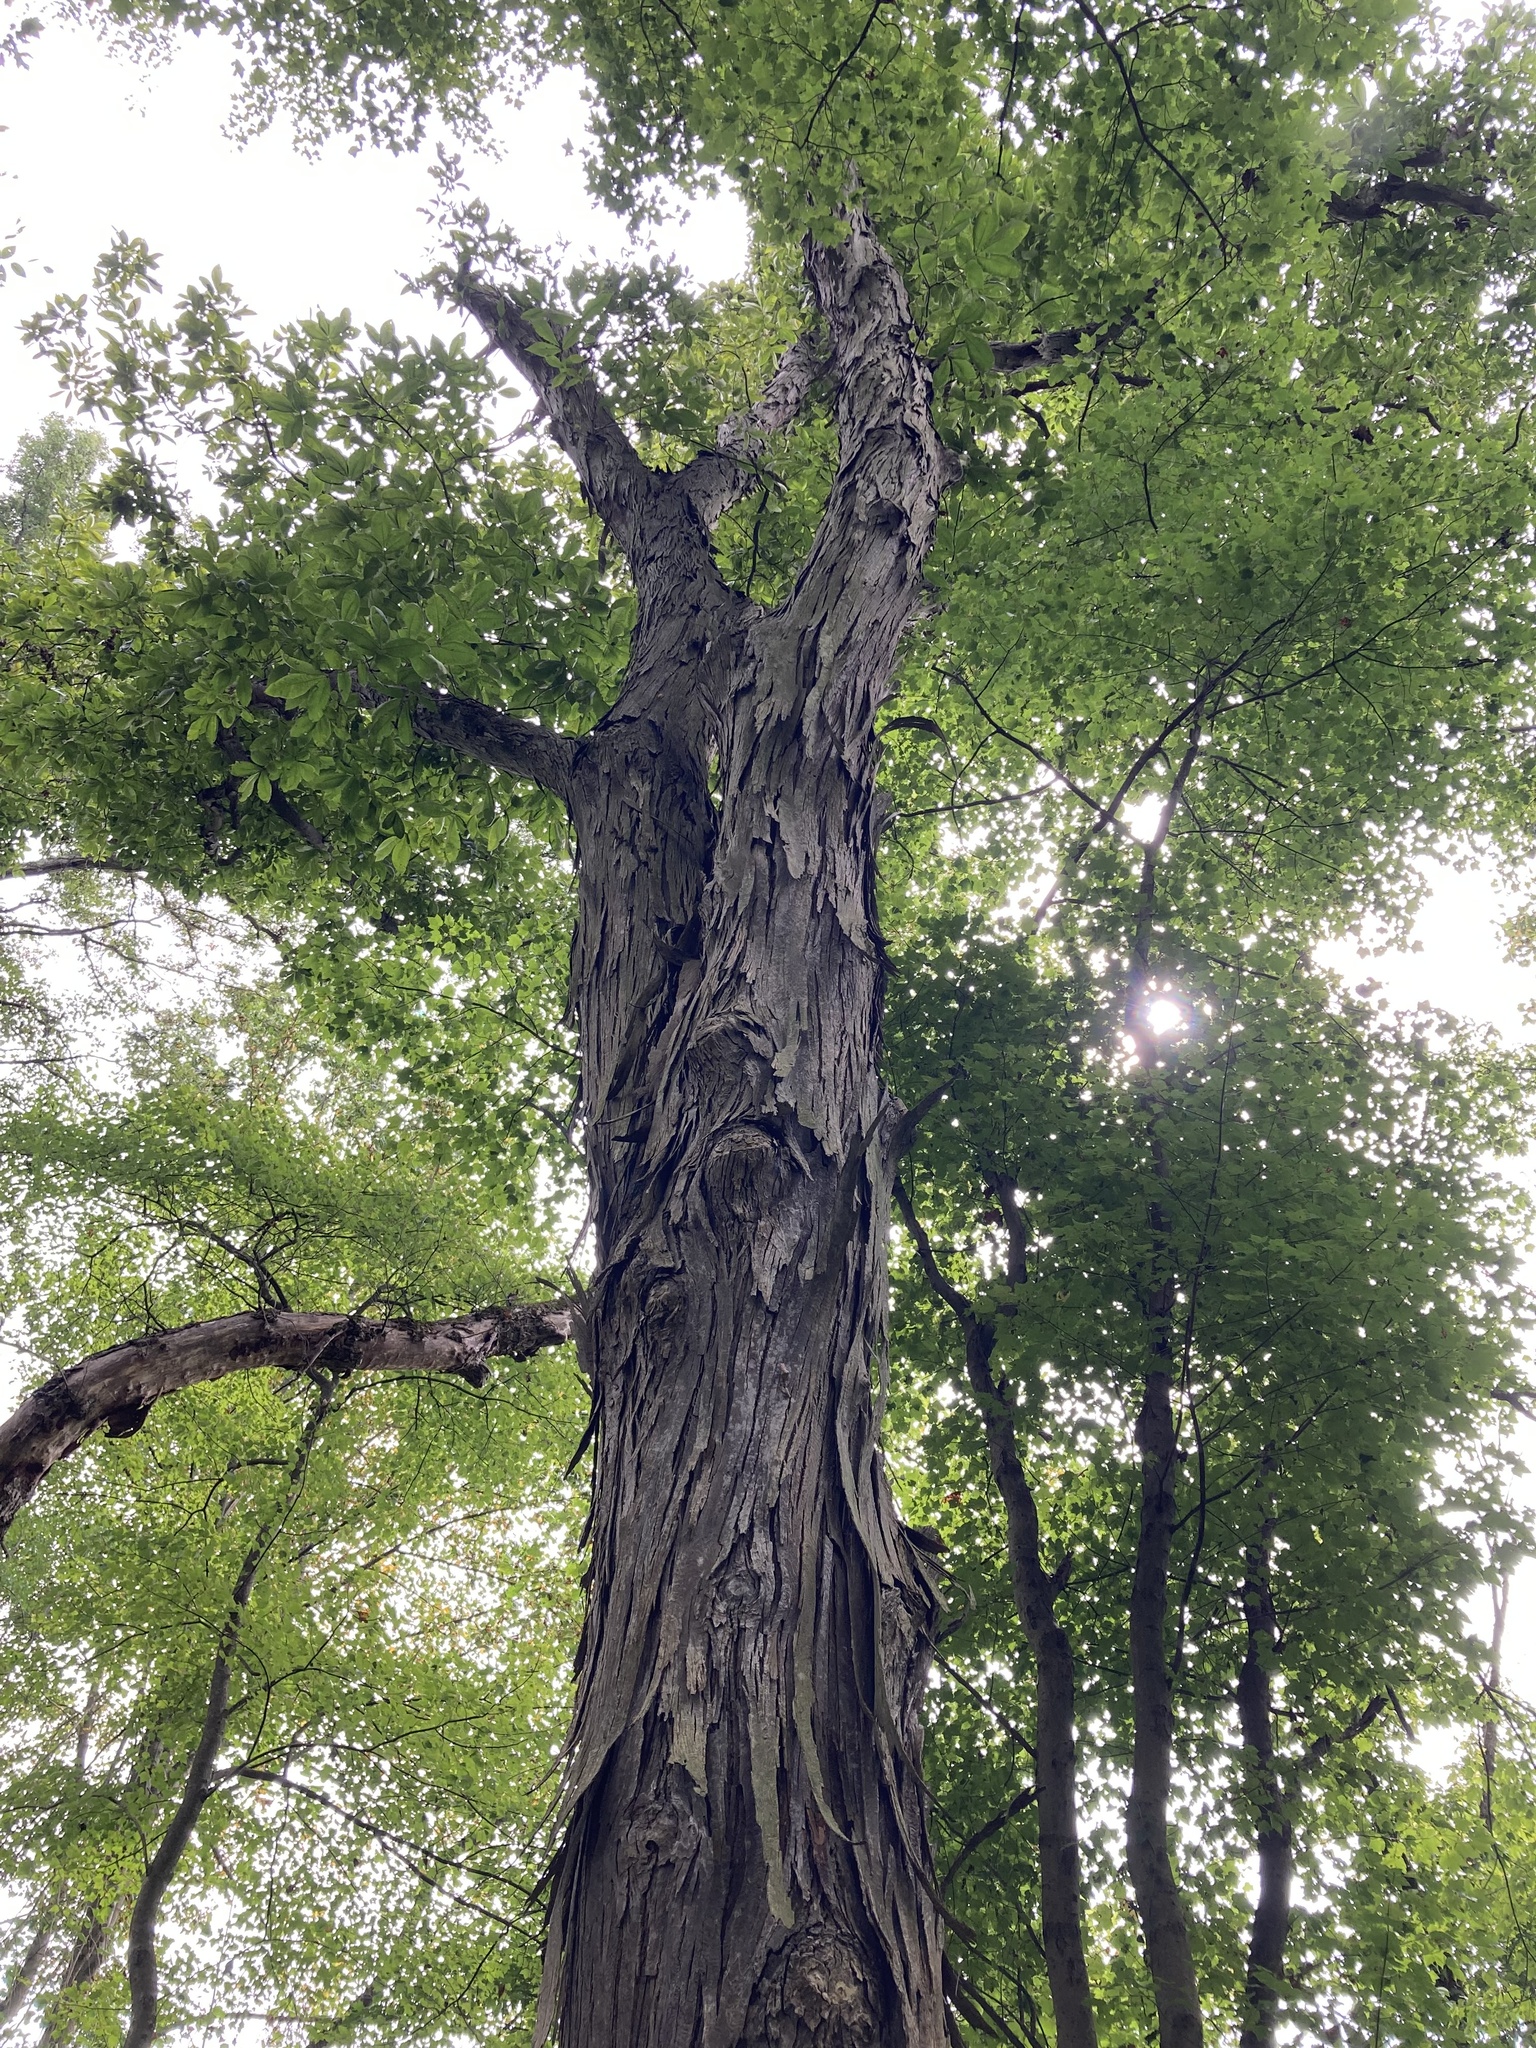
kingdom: Plantae
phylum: Tracheophyta
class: Magnoliopsida
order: Fagales
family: Juglandaceae
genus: Carya
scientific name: Carya ovata
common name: Shagbark hickory
